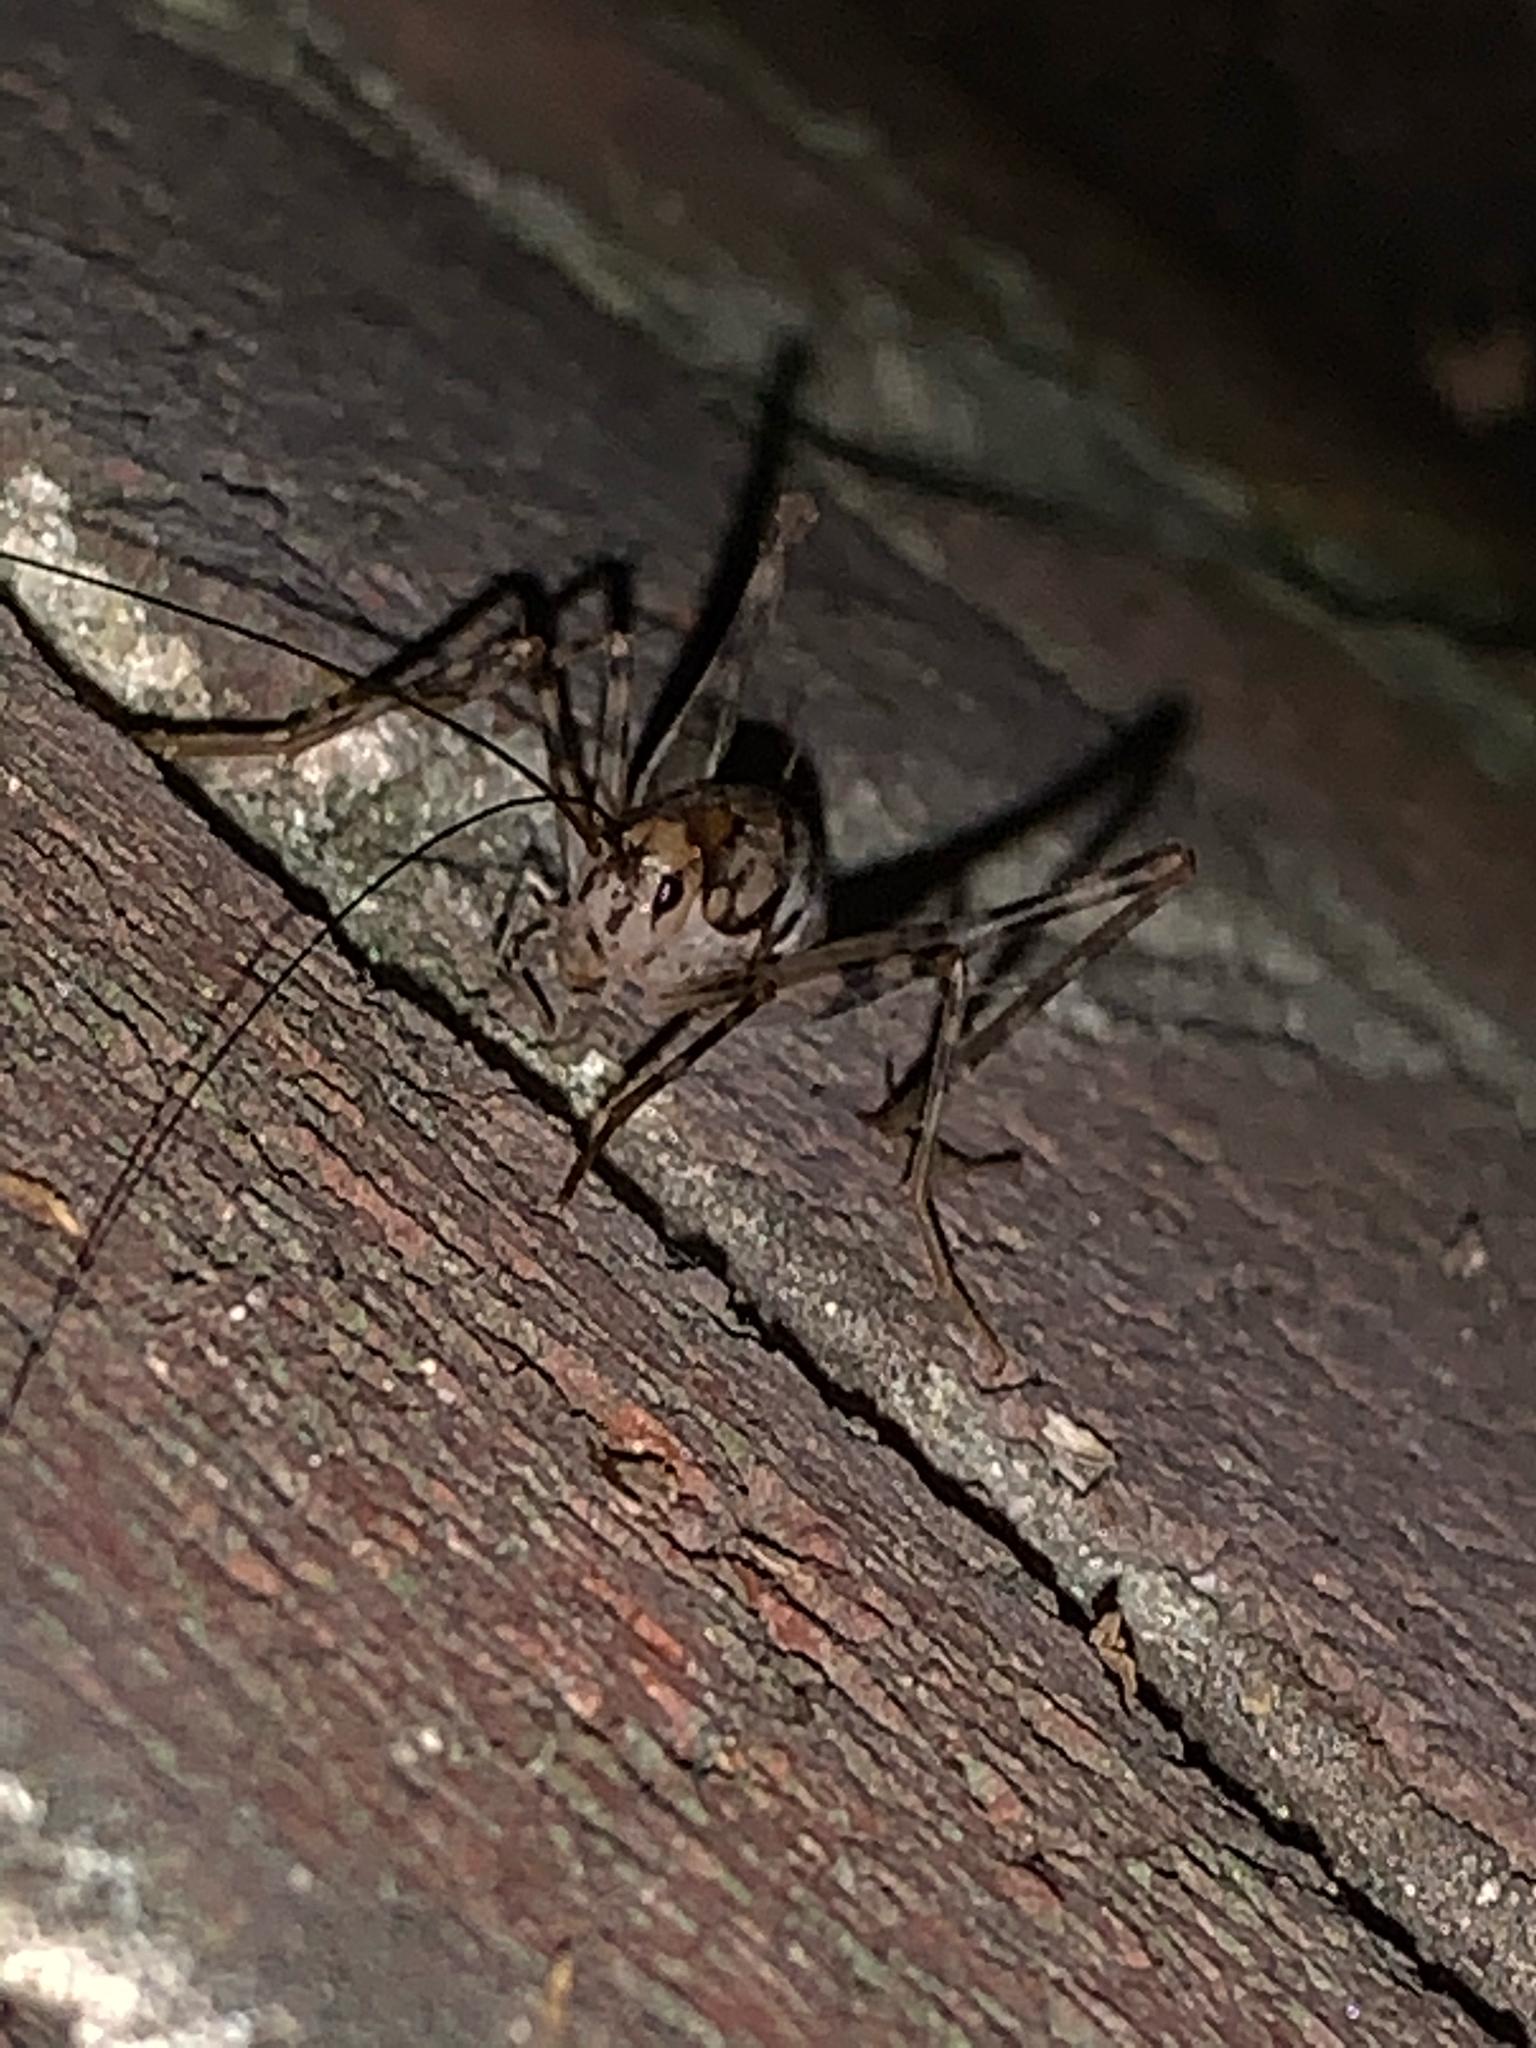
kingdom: Animalia
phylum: Arthropoda
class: Insecta
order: Orthoptera
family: Rhaphidophoridae
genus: Tachycines
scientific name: Tachycines asynamorus
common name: Greenhouse camel cricket
